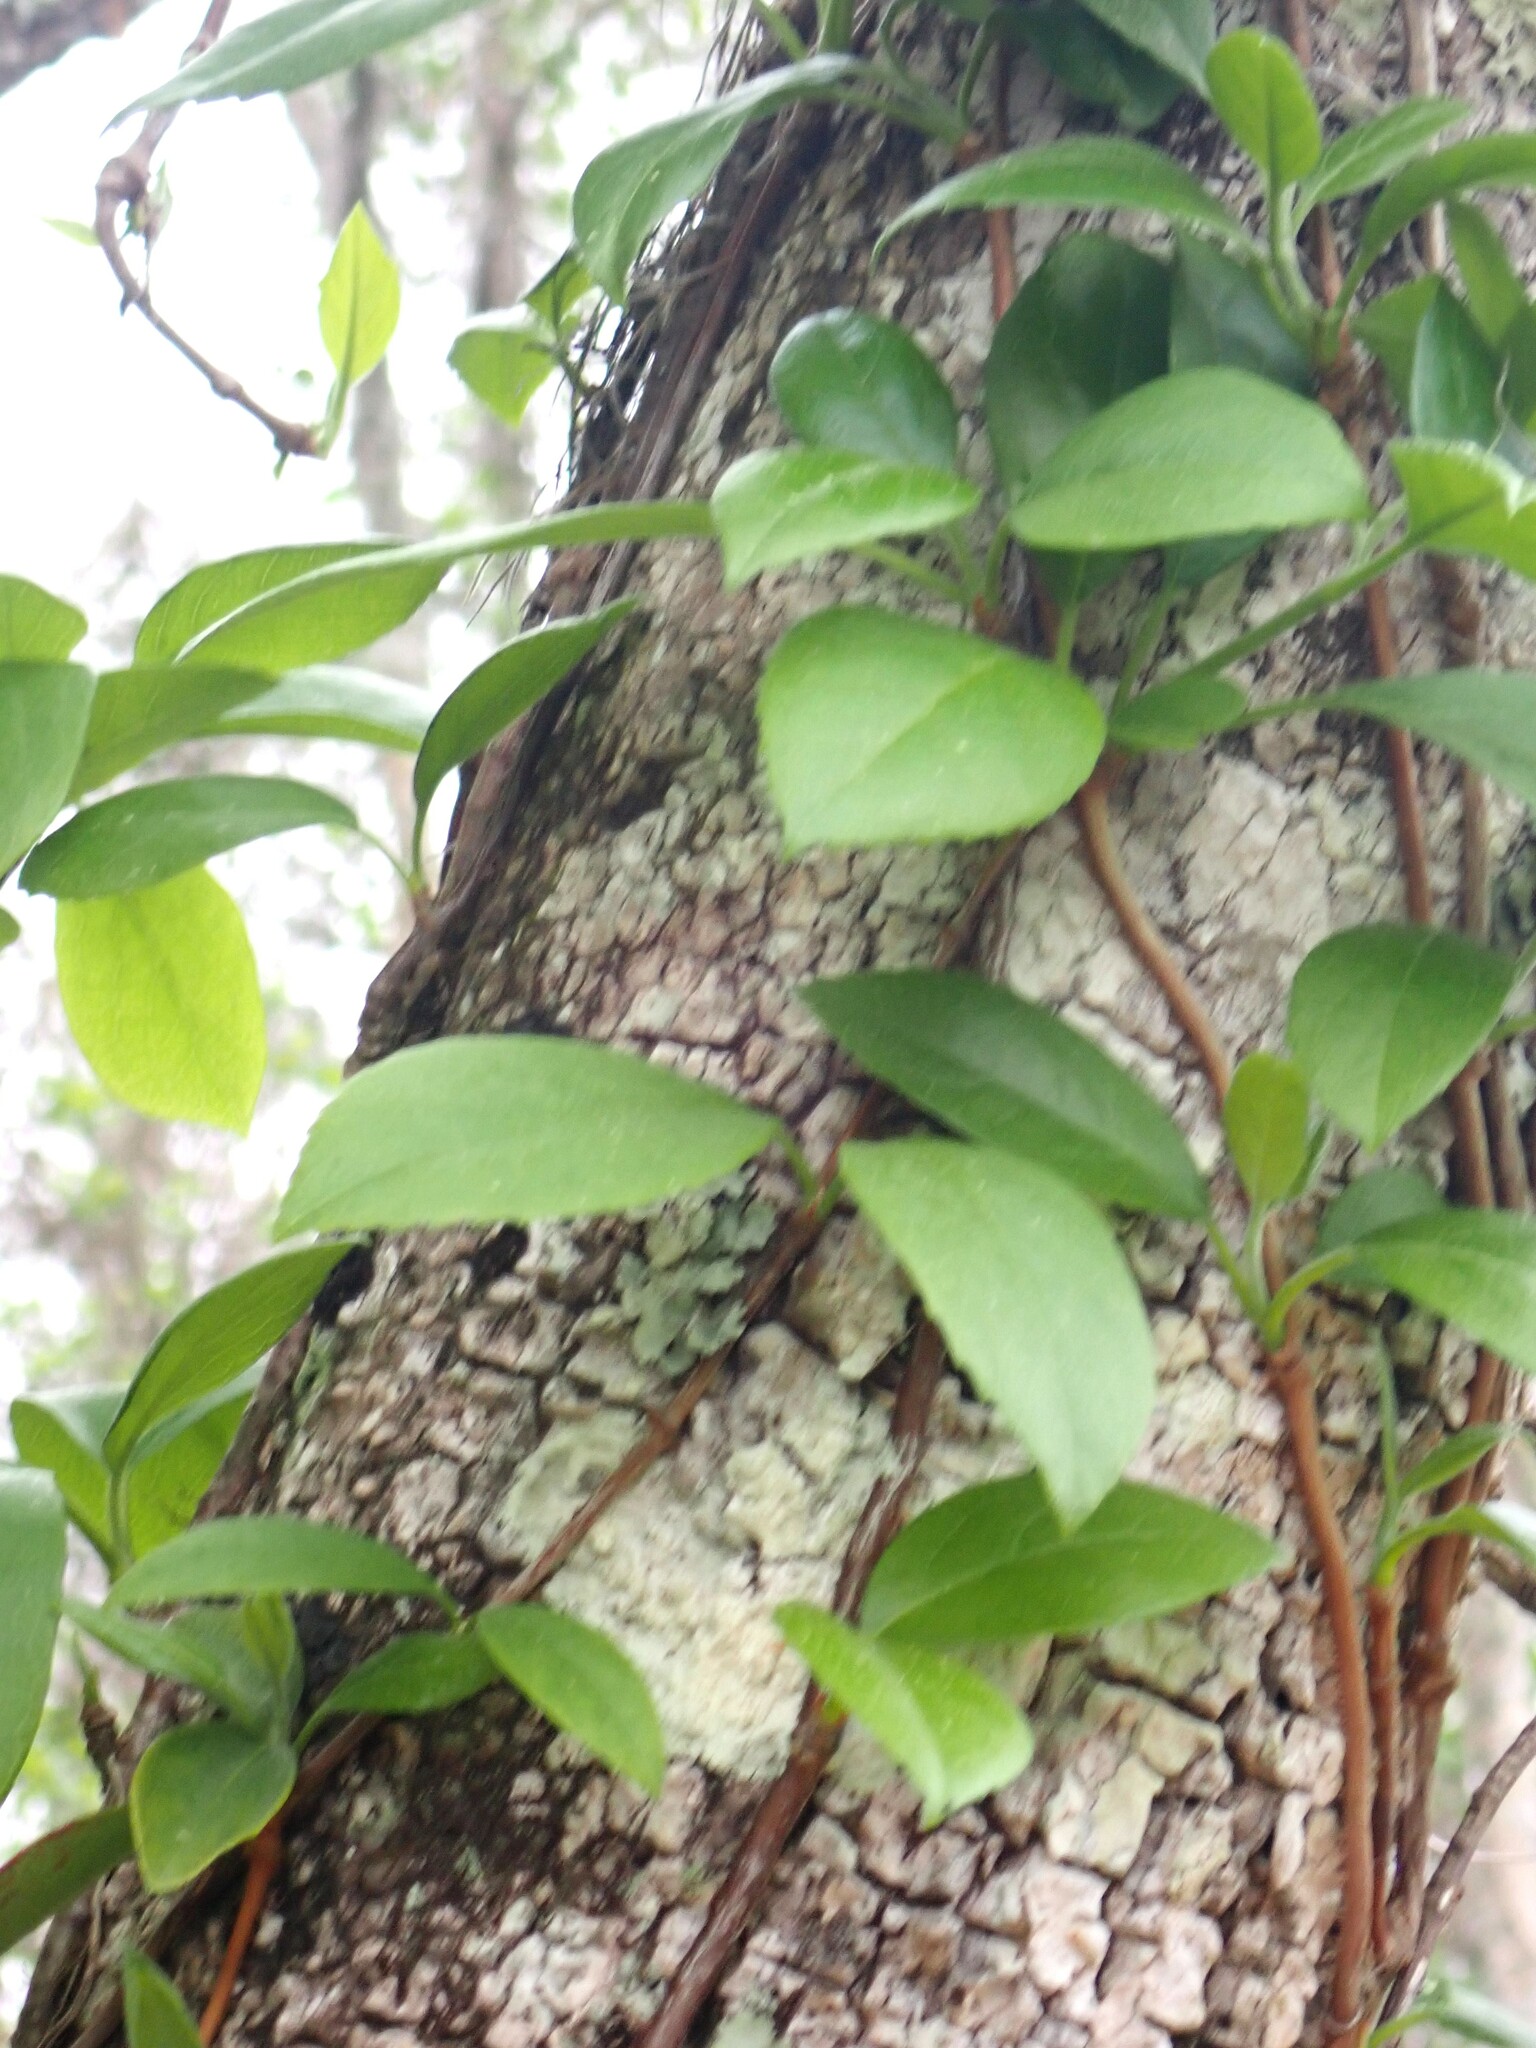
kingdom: Plantae
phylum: Tracheophyta
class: Magnoliopsida
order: Cornales
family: Hydrangeaceae
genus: Hydrangea
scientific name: Hydrangea barbara
